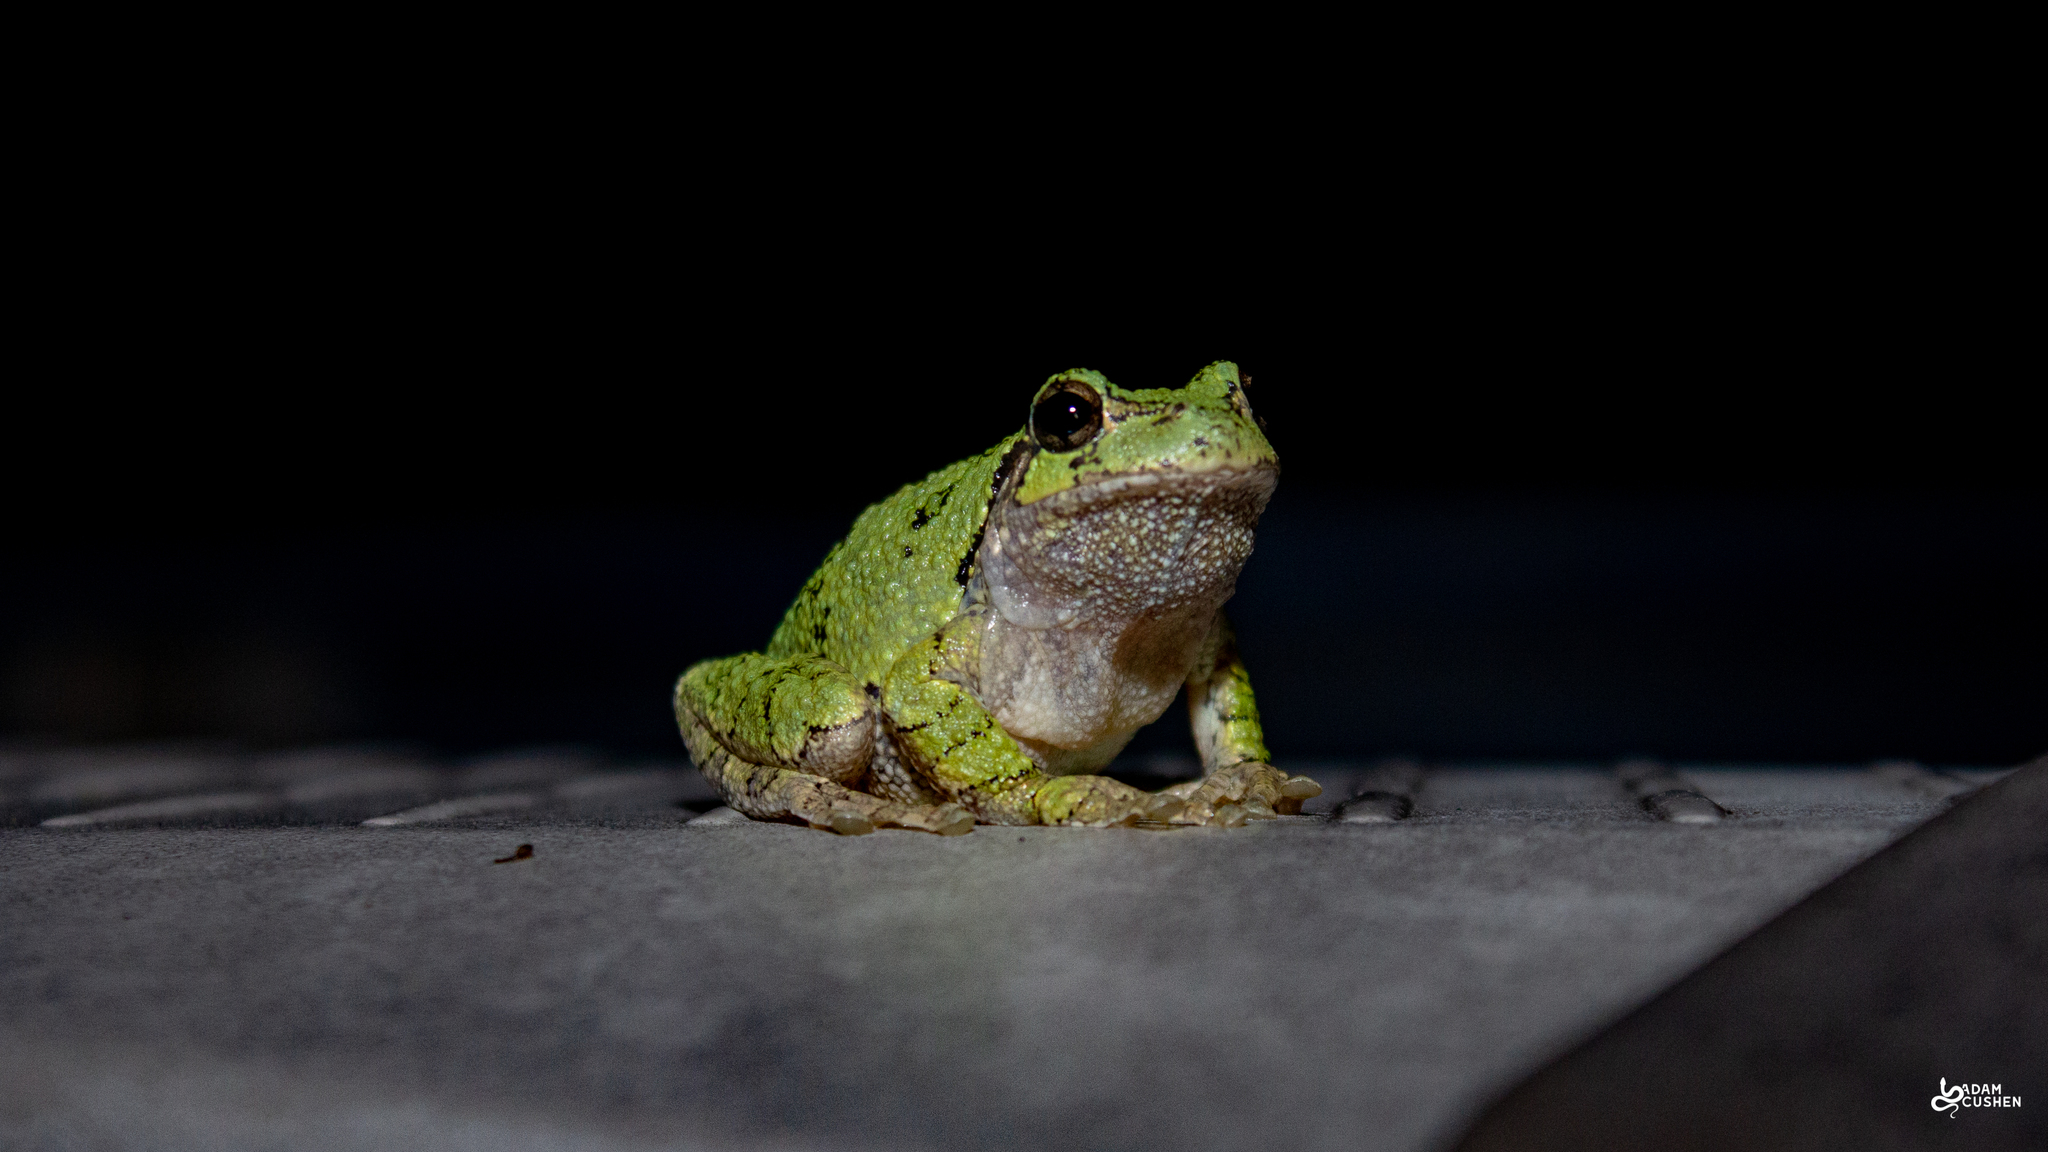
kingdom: Animalia
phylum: Chordata
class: Amphibia
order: Anura
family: Hylidae
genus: Dryophytes
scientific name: Dryophytes versicolor
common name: Gray treefrog
